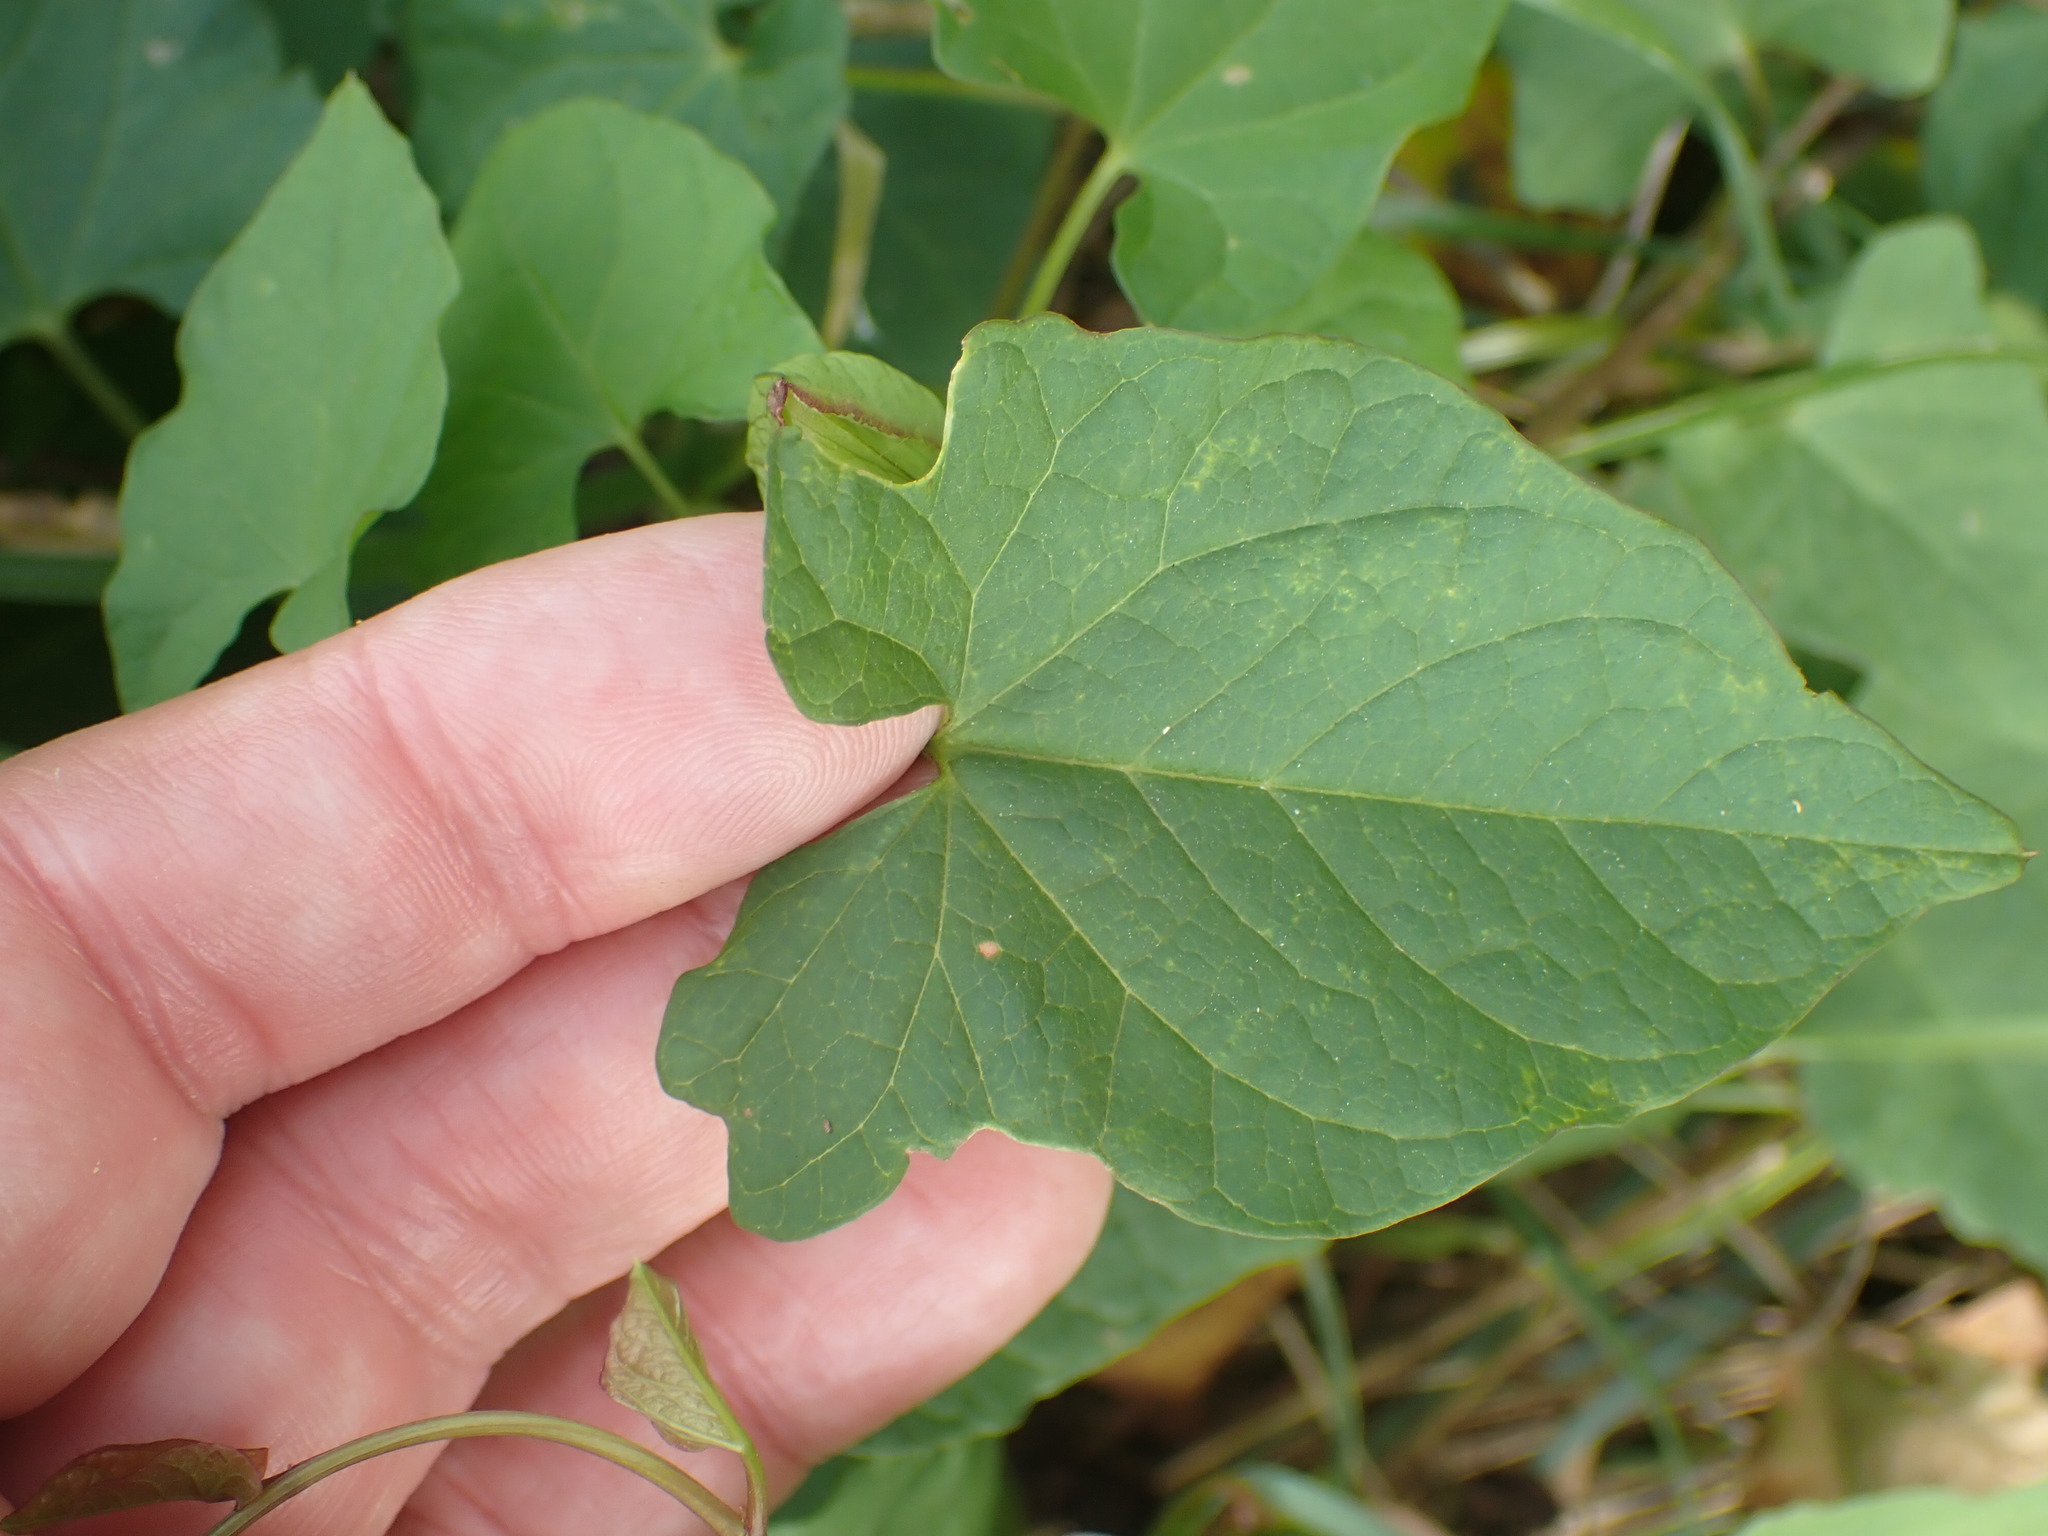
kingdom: Plantae
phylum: Tracheophyta
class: Magnoliopsida
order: Solanales
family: Convolvulaceae
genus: Calystegia
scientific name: Calystegia sepium
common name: Hedge bindweed
